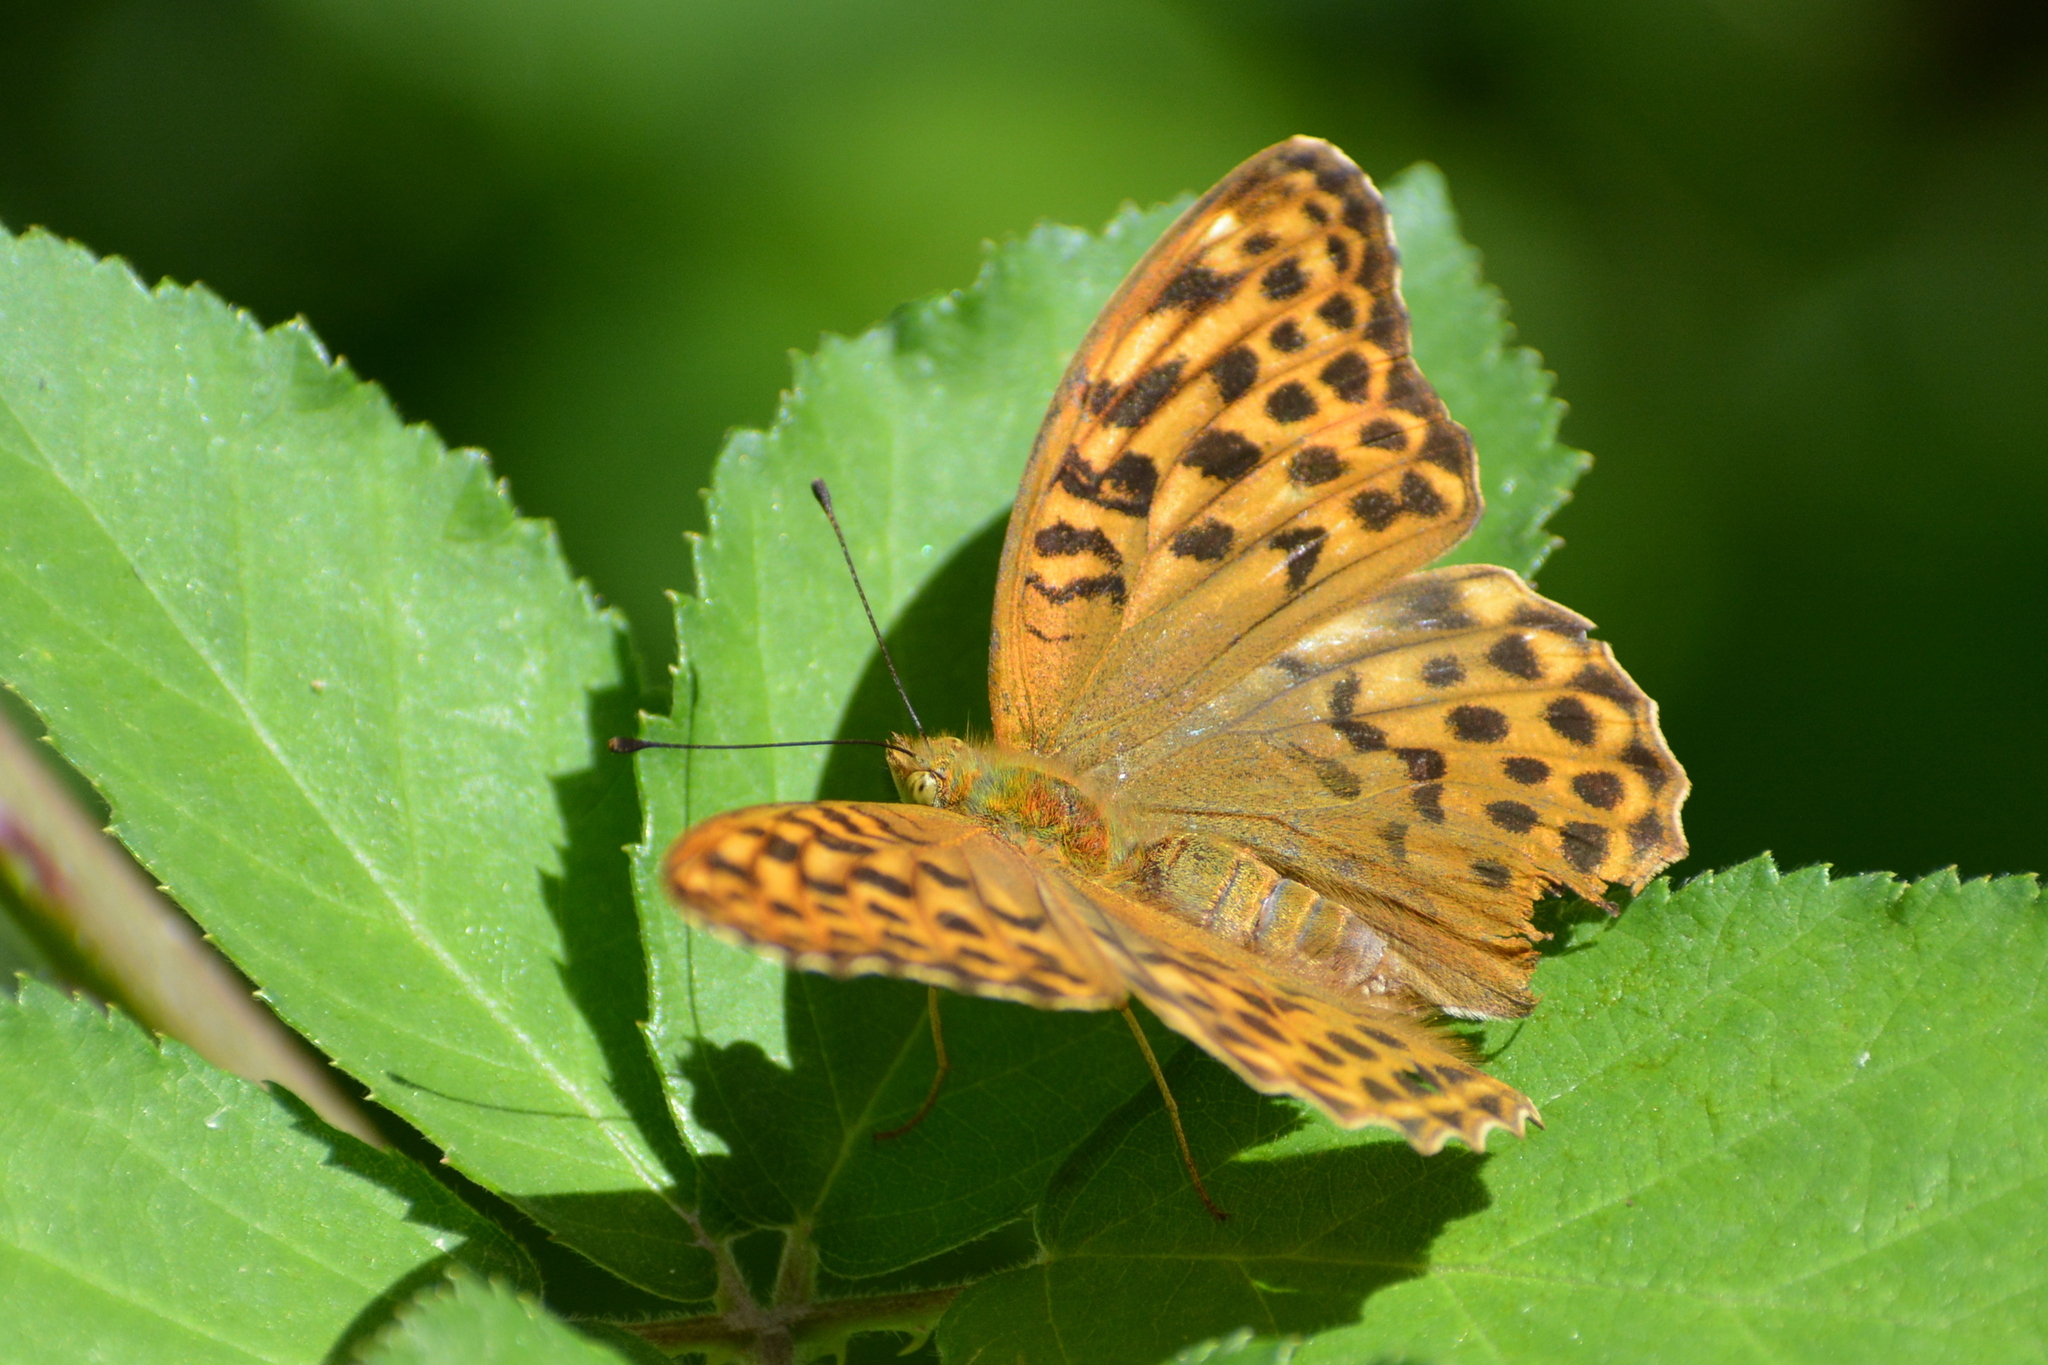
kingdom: Animalia
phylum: Arthropoda
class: Insecta
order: Lepidoptera
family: Nymphalidae
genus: Argynnis
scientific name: Argynnis paphia
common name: Silver-washed fritillary
